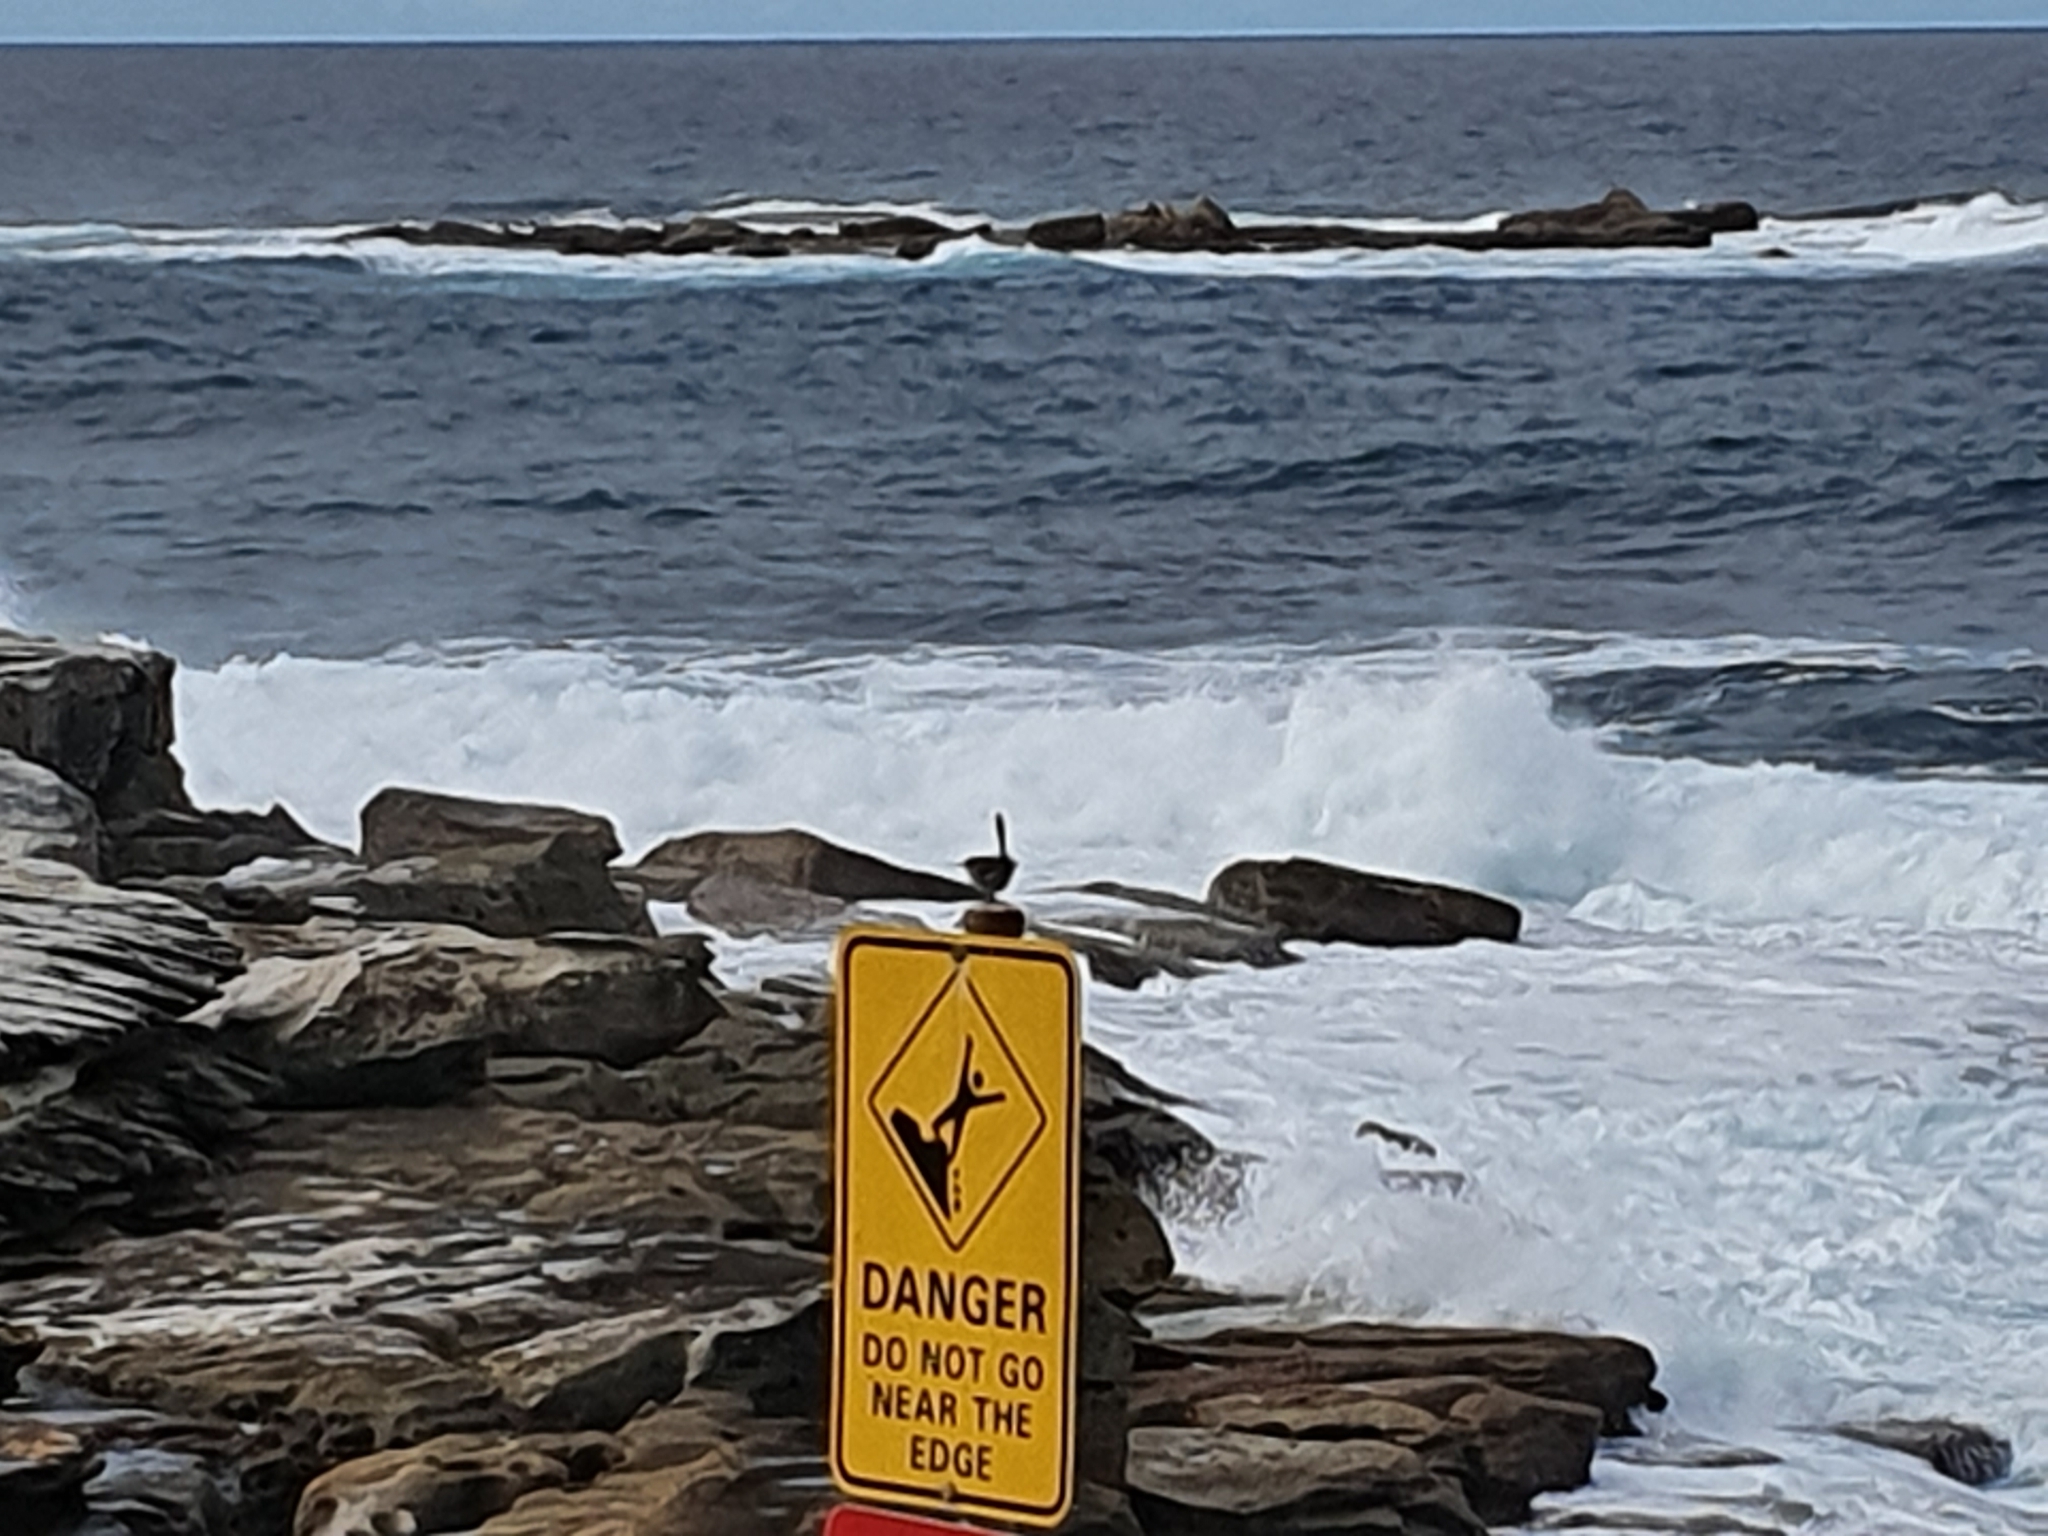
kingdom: Animalia
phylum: Chordata
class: Aves
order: Passeriformes
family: Maluridae
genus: Malurus
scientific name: Malurus cyaneus
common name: Superb fairywren
